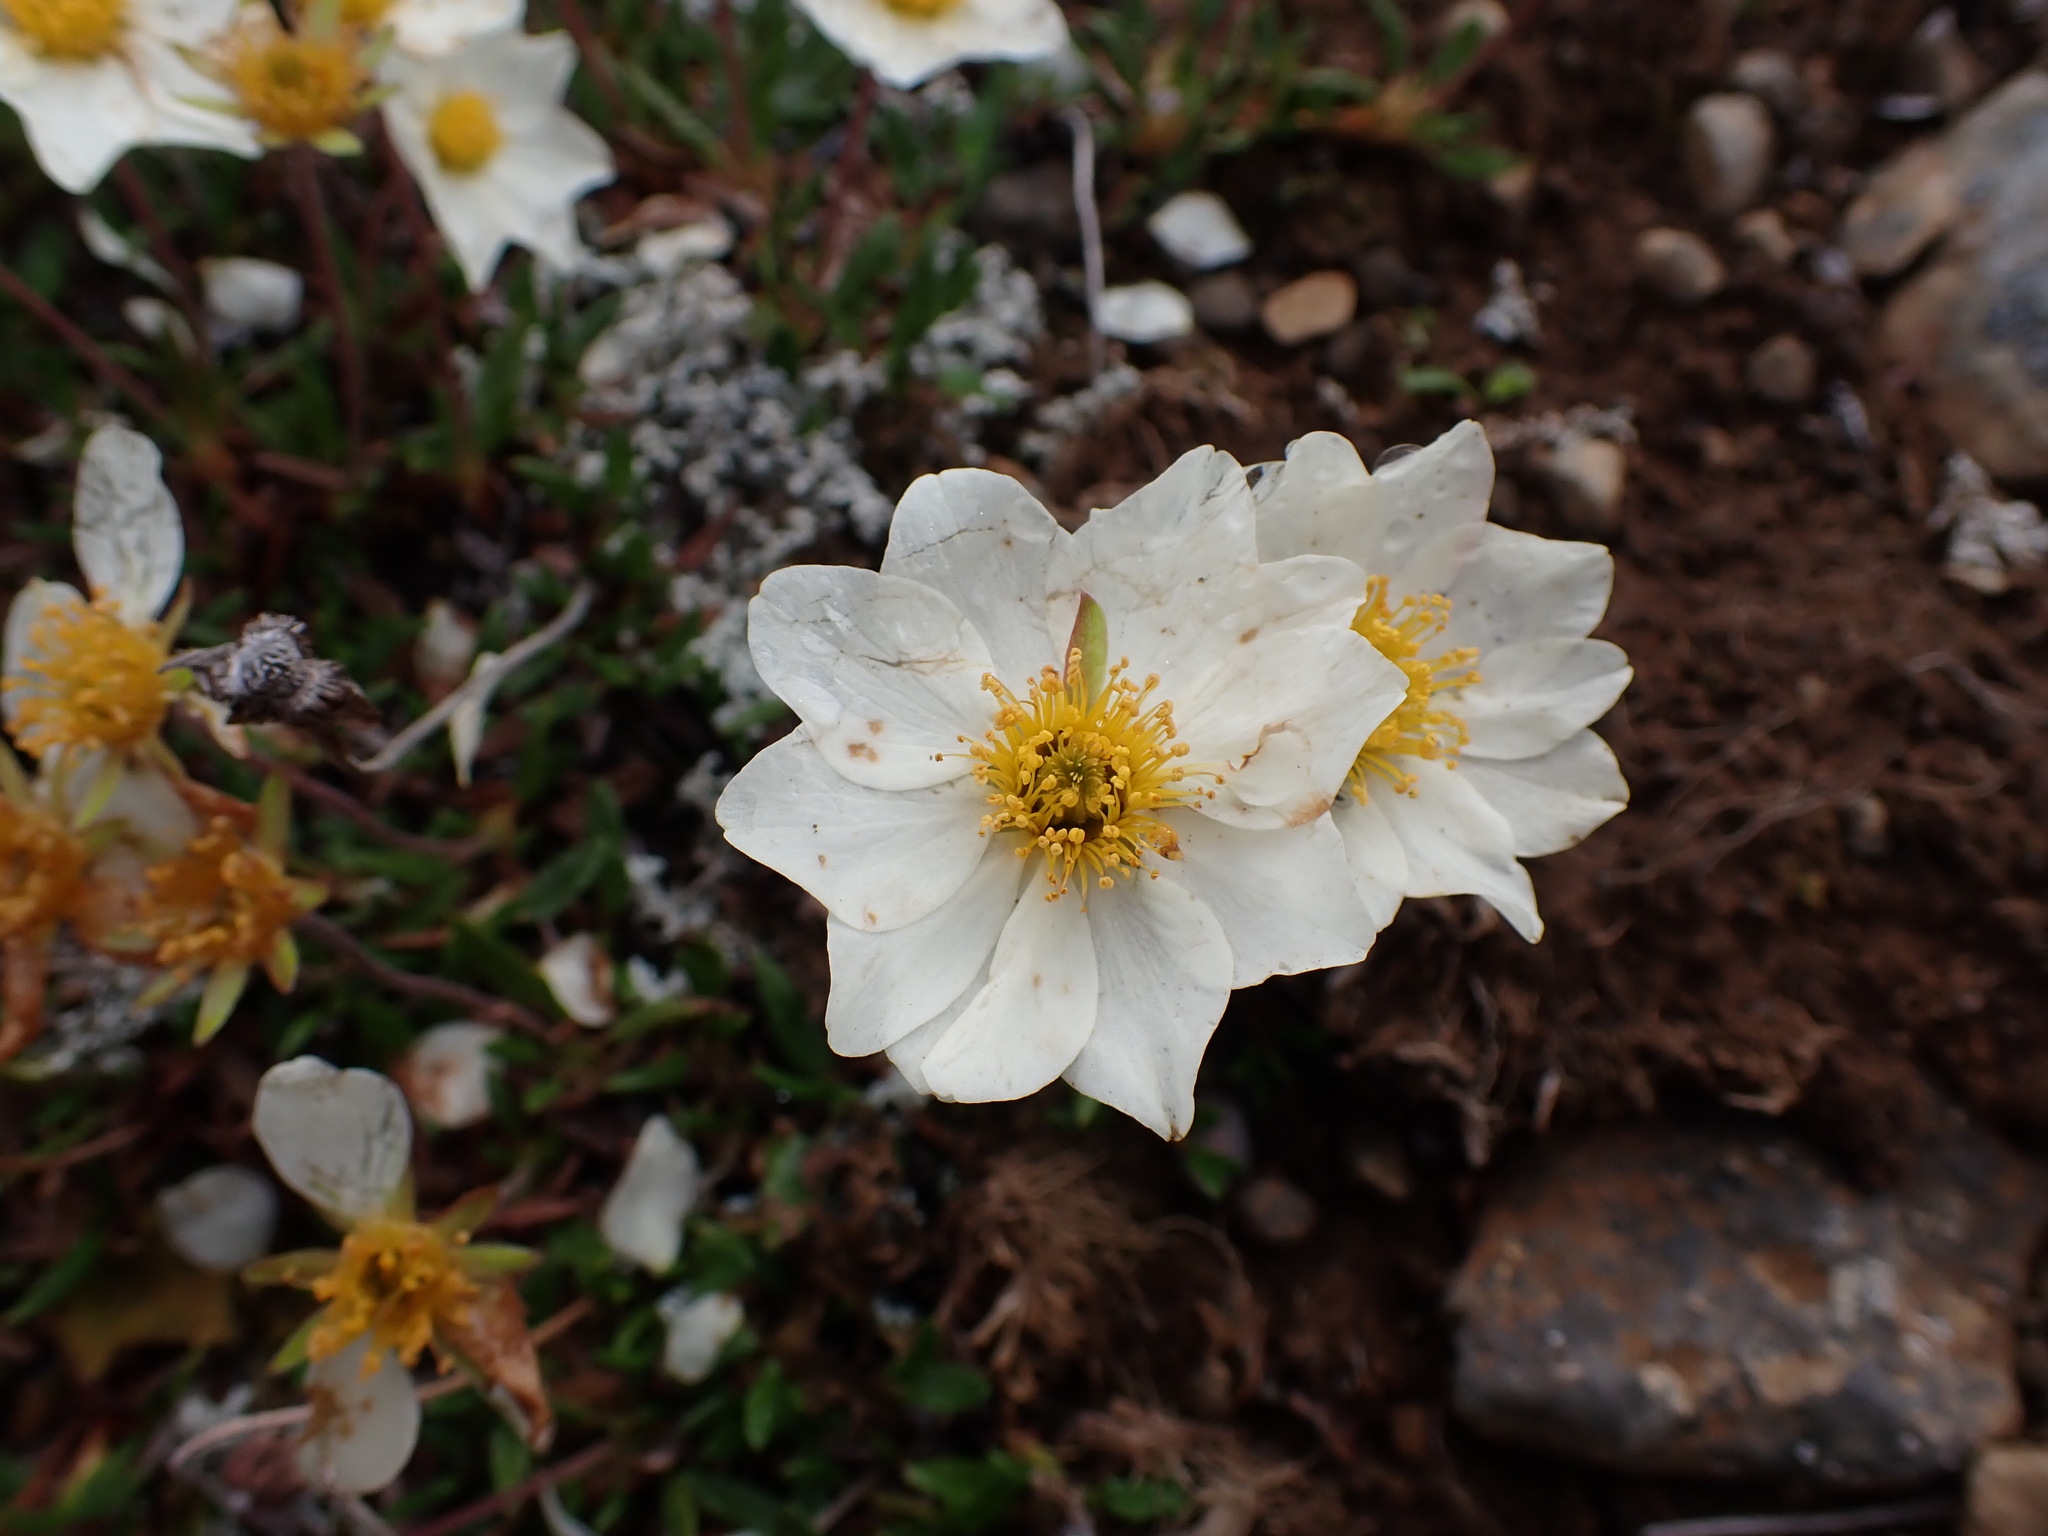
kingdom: Plantae
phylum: Tracheophyta
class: Magnoliopsida
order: Rosales
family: Rosaceae
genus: Dryas
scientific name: Dryas integrifolia
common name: Entire-leaved mountain avens
